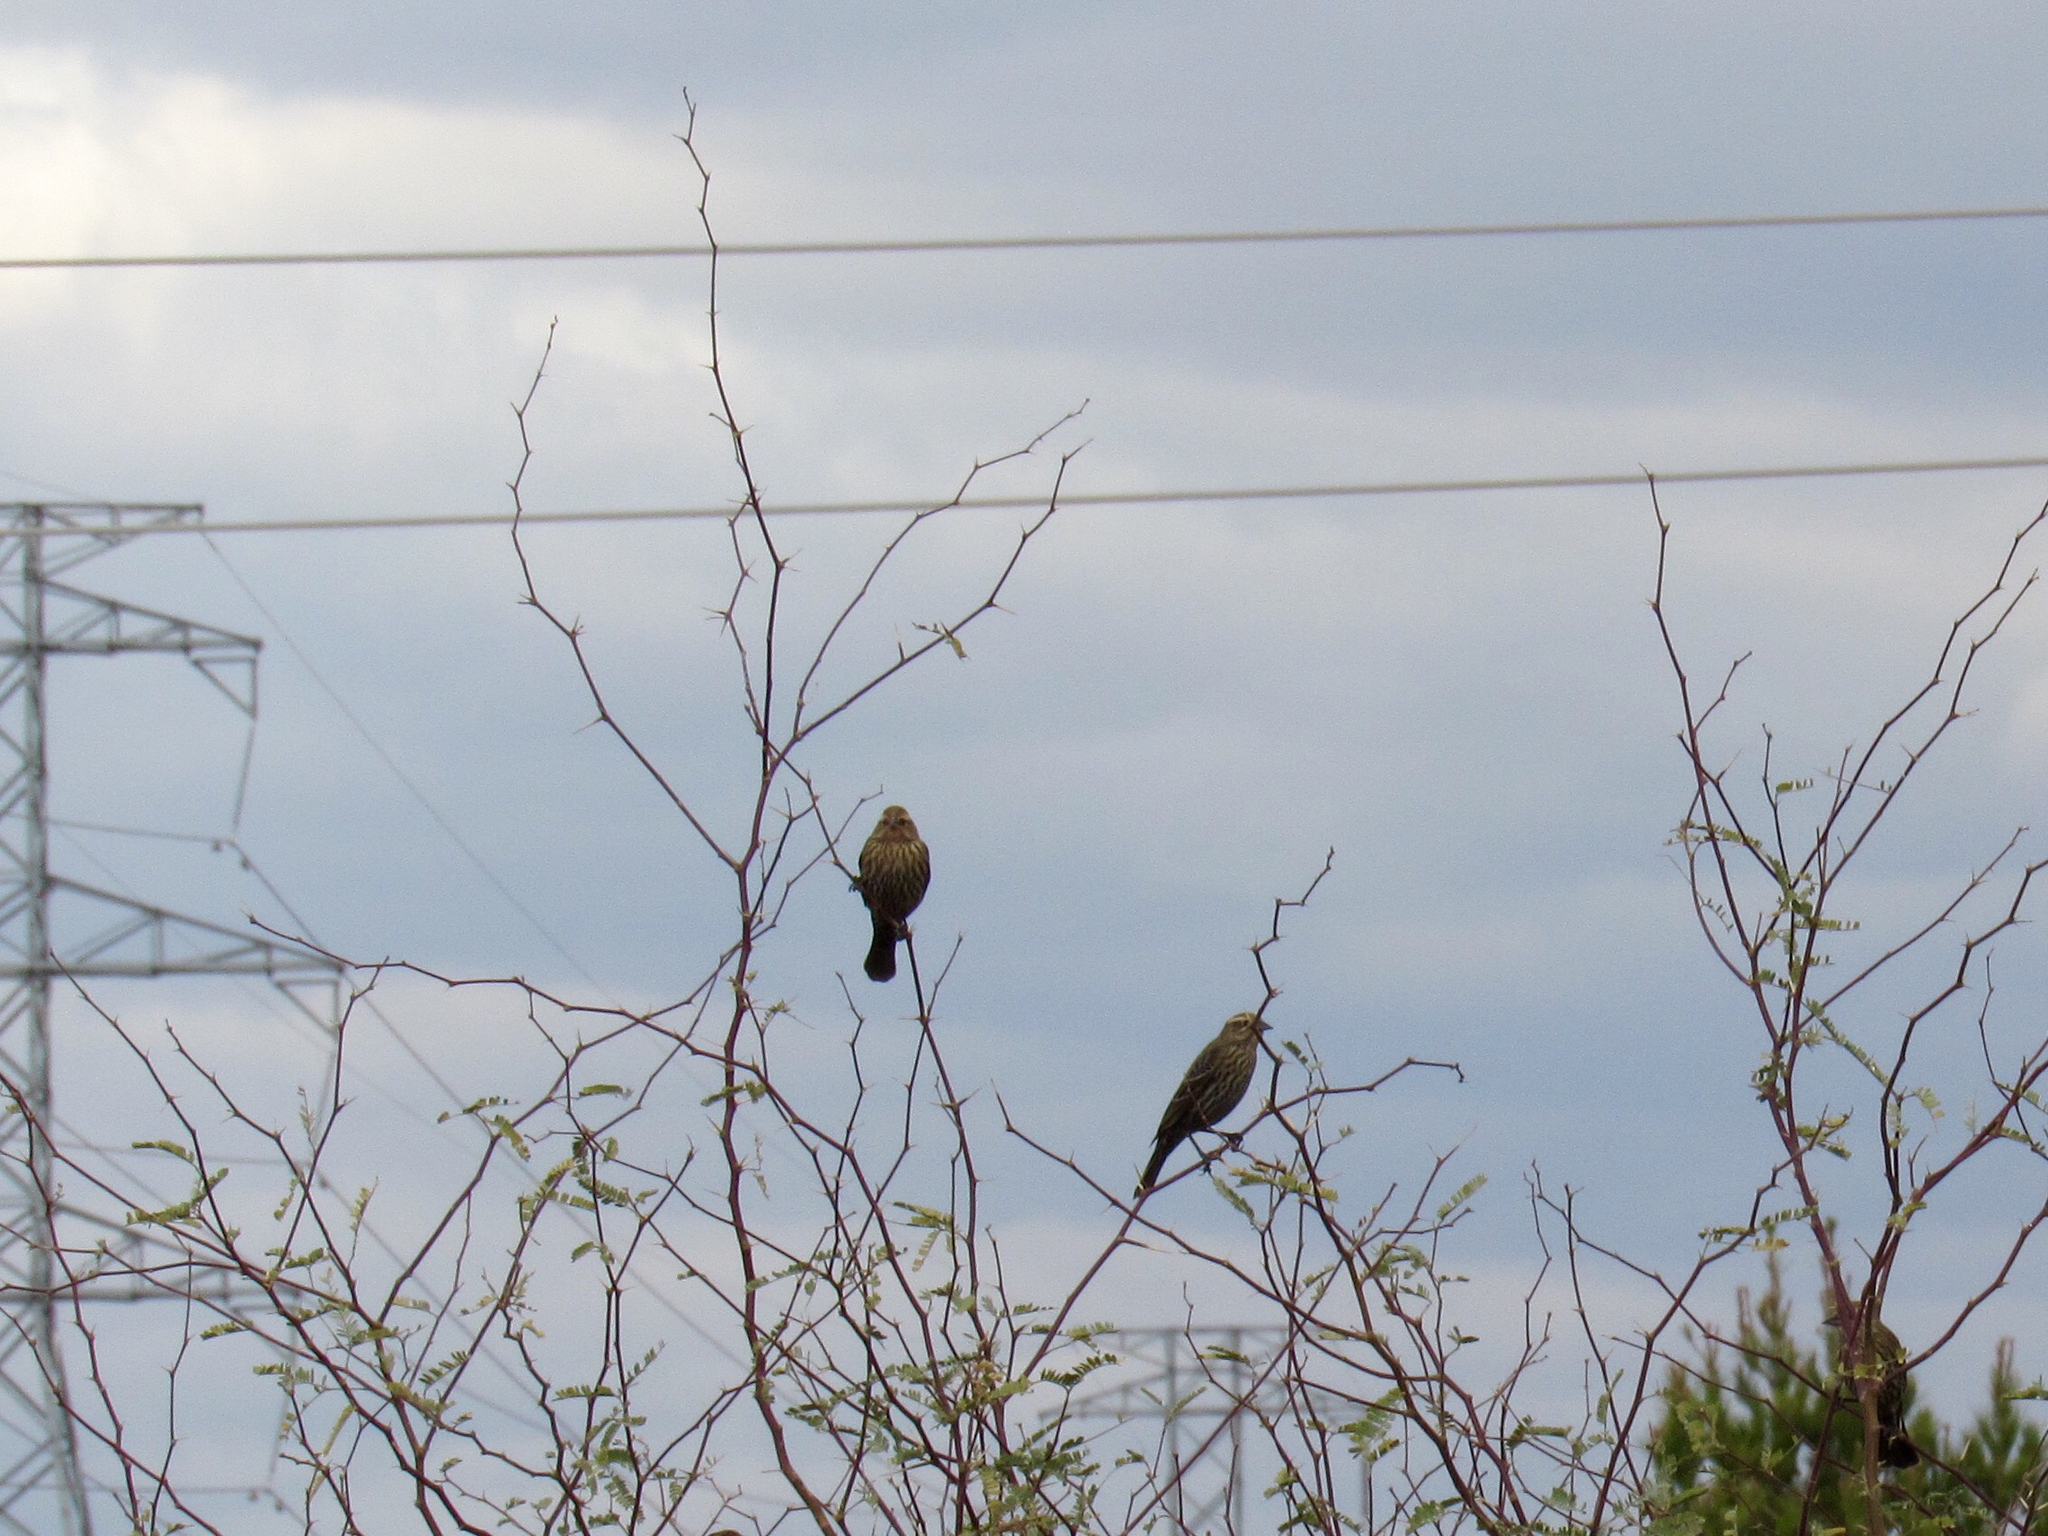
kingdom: Animalia
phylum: Chordata
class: Aves
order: Passeriformes
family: Icteridae
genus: Agelaius
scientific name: Agelaius phoeniceus
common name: Red-winged blackbird
